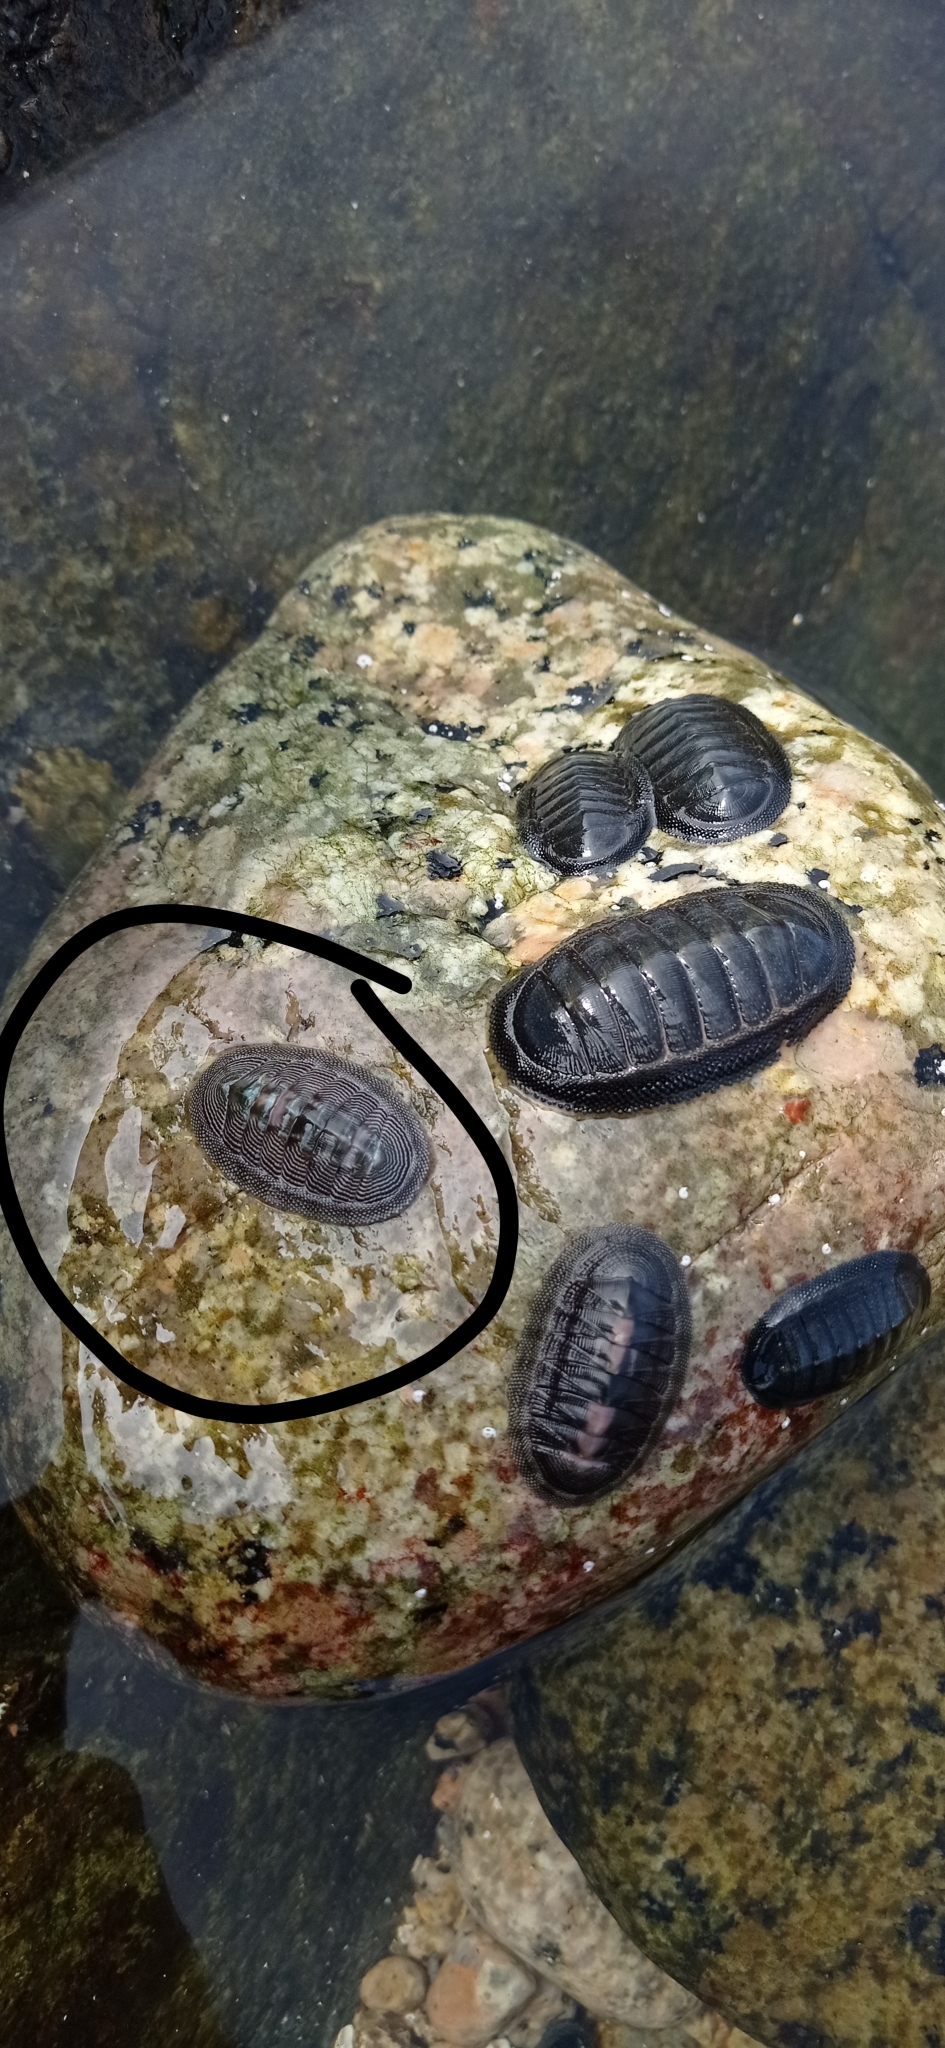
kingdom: Animalia
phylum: Mollusca
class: Polyplacophora
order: Chitonida
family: Chitonidae
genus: Chiton
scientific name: Chiton cumingsii
